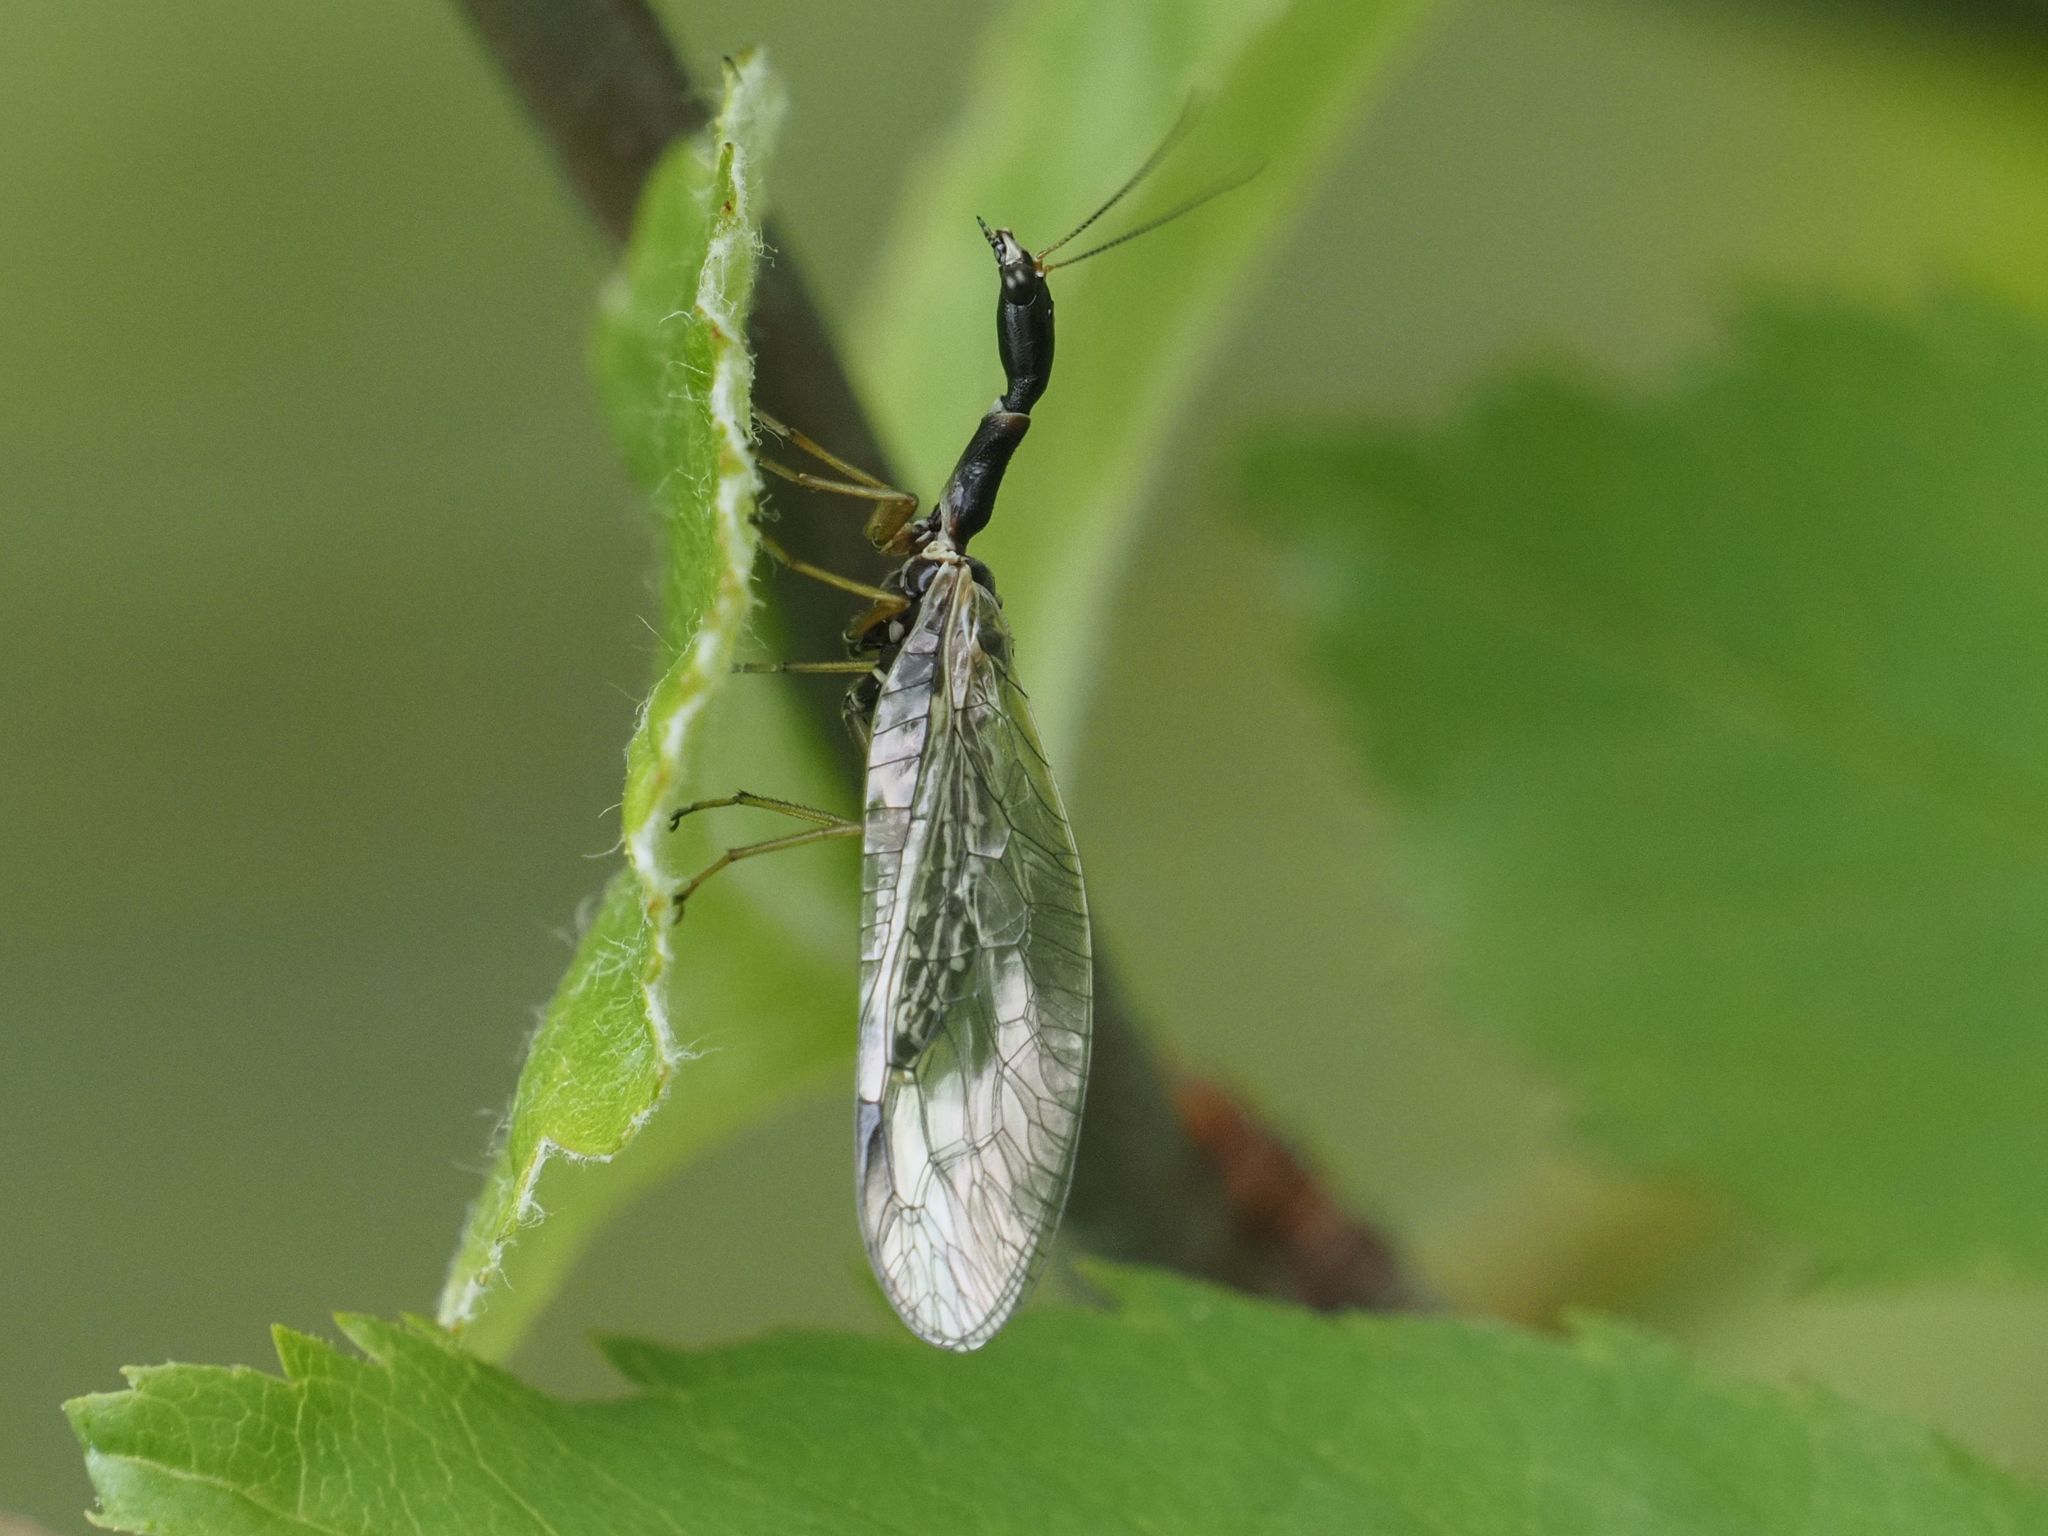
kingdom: Animalia
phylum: Arthropoda
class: Insecta
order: Raphidioptera
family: Raphidiidae
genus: Dichrostigma
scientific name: Dichrostigma flavipes
